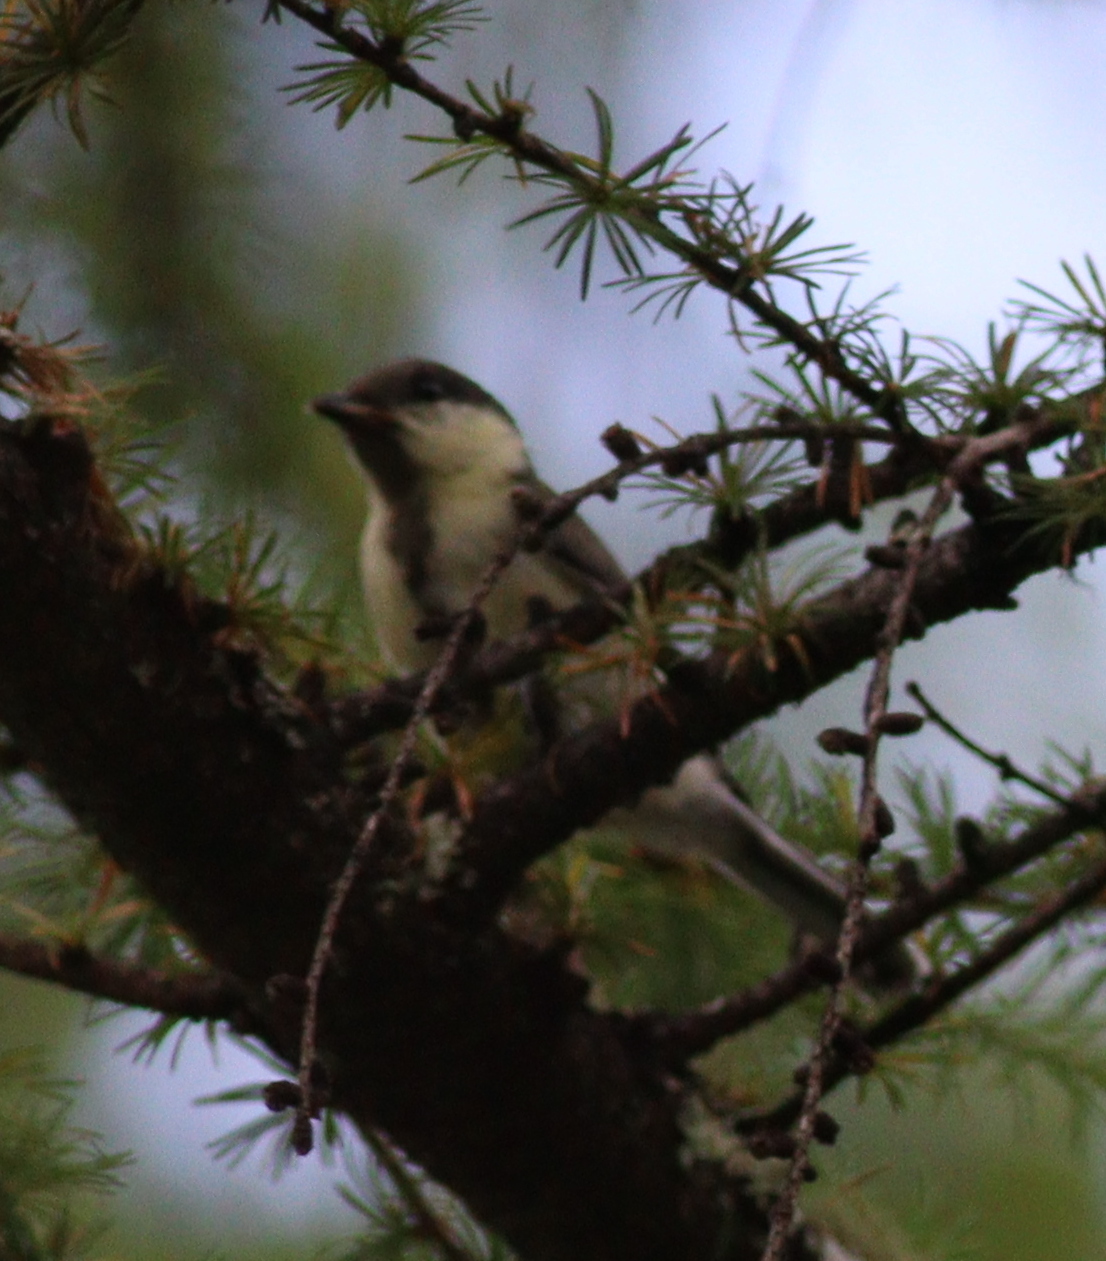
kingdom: Animalia
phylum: Chordata
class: Aves
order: Passeriformes
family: Paridae
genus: Parus
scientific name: Parus minor
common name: Japanese tit
